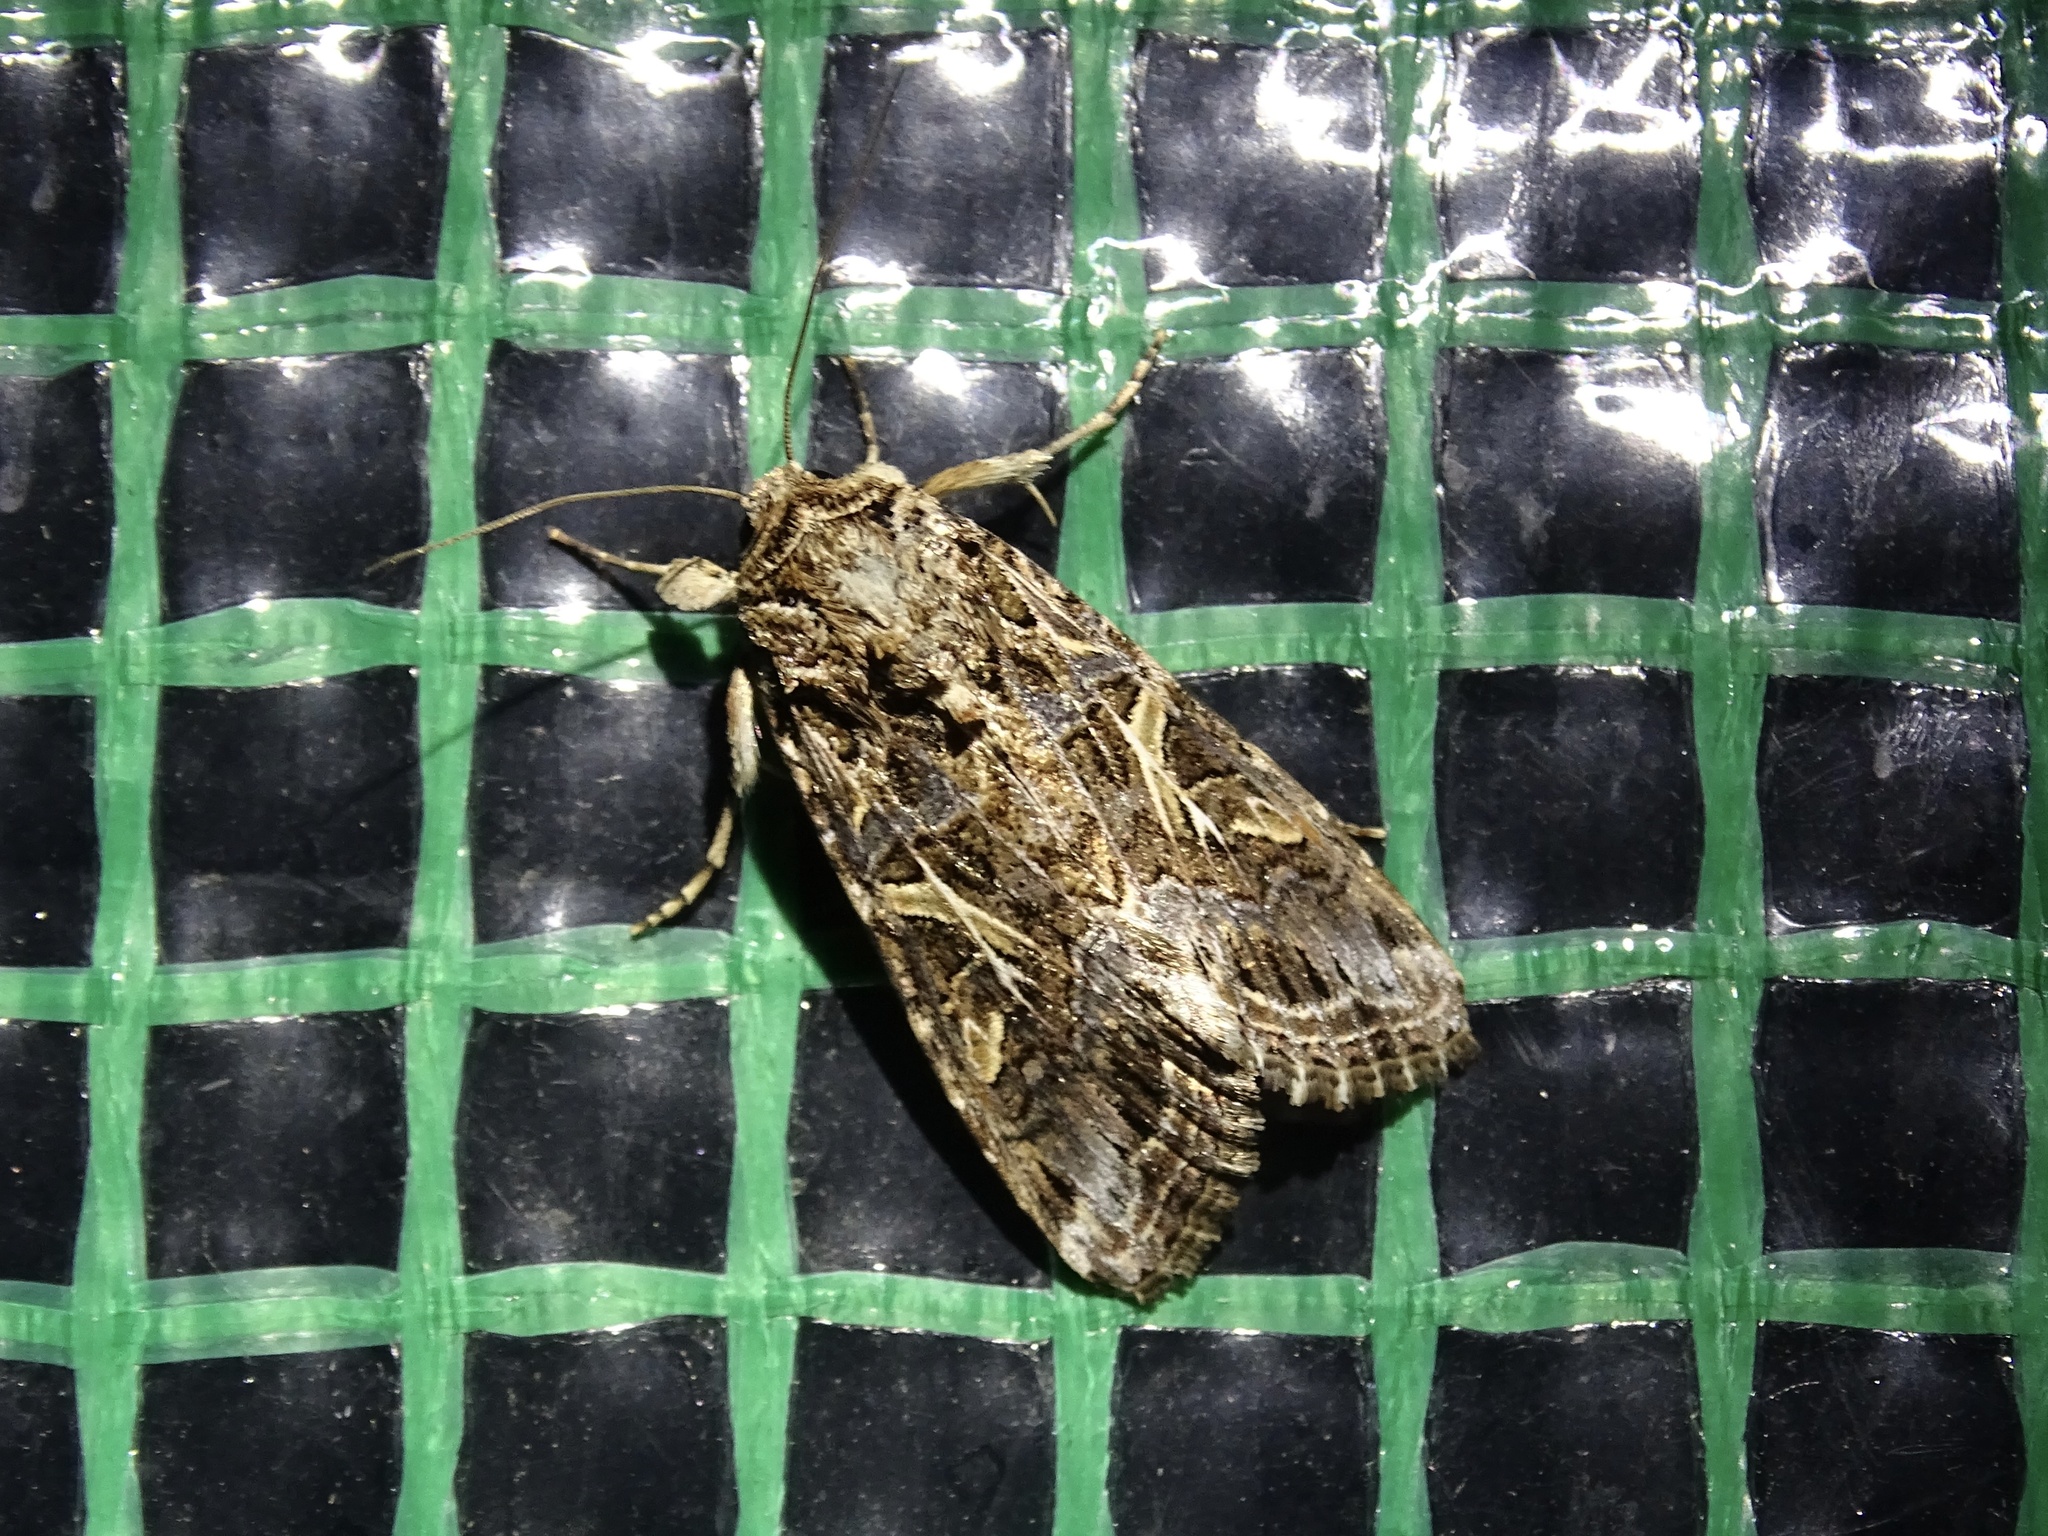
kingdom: Animalia
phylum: Arthropoda
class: Insecta
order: Lepidoptera
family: Noctuidae
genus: Spodoptera
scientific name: Spodoptera ornithogalli
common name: Yellow-striped armyworm
